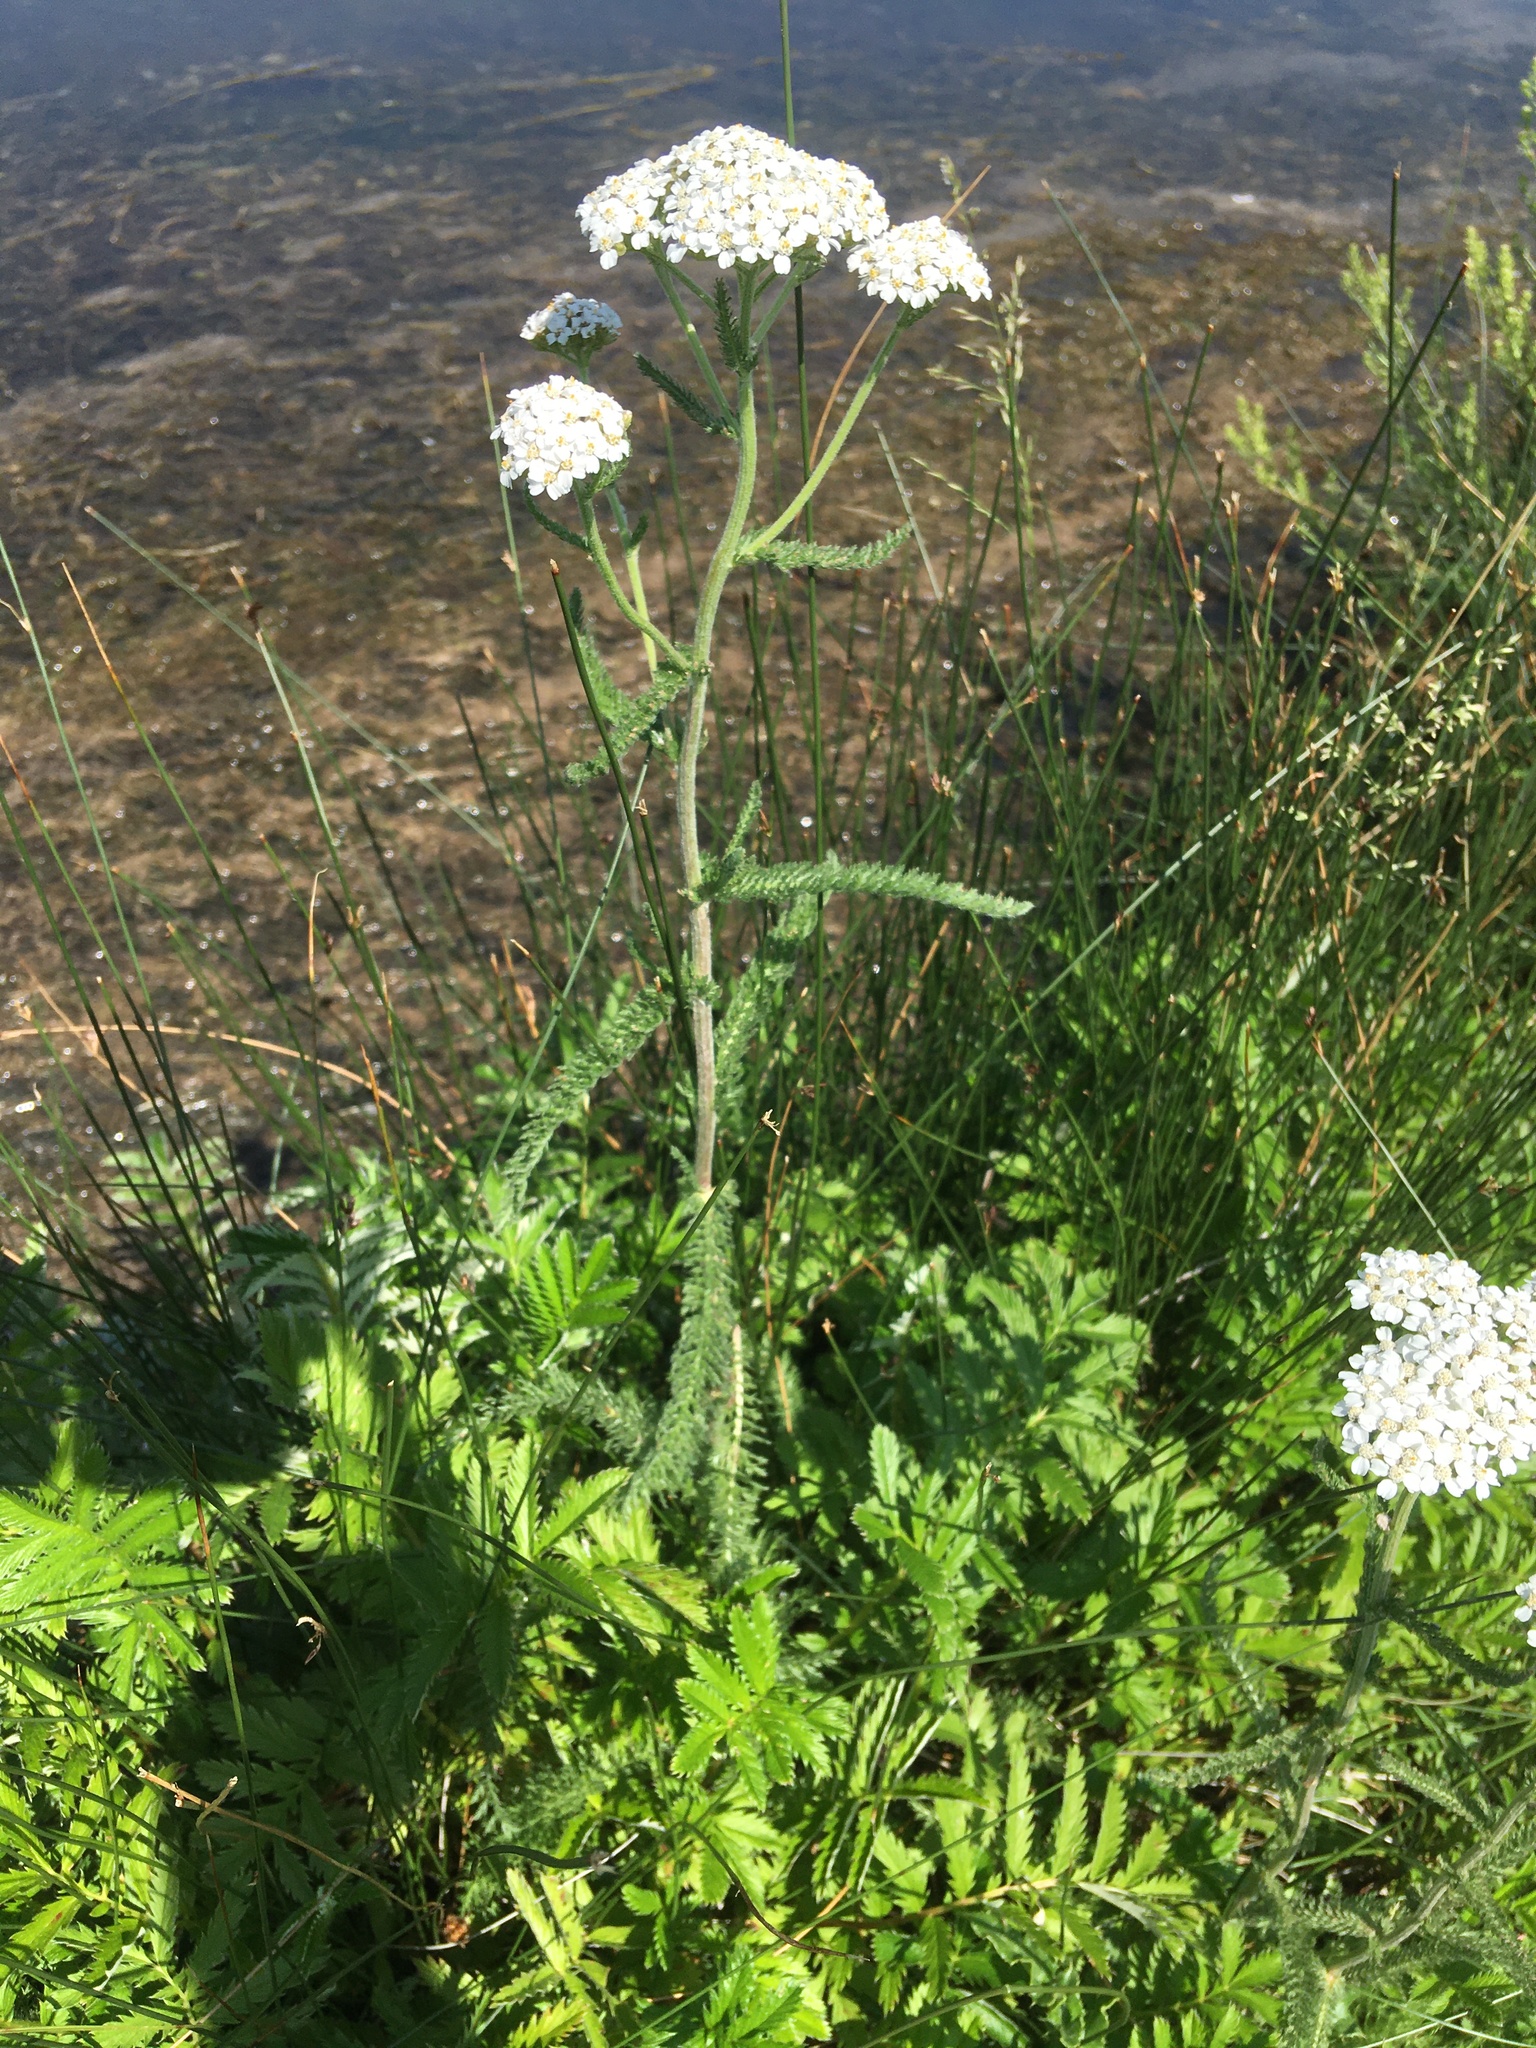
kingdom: Plantae
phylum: Tracheophyta
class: Magnoliopsida
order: Asterales
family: Asteraceae
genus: Achillea
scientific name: Achillea millefolium
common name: Yarrow
